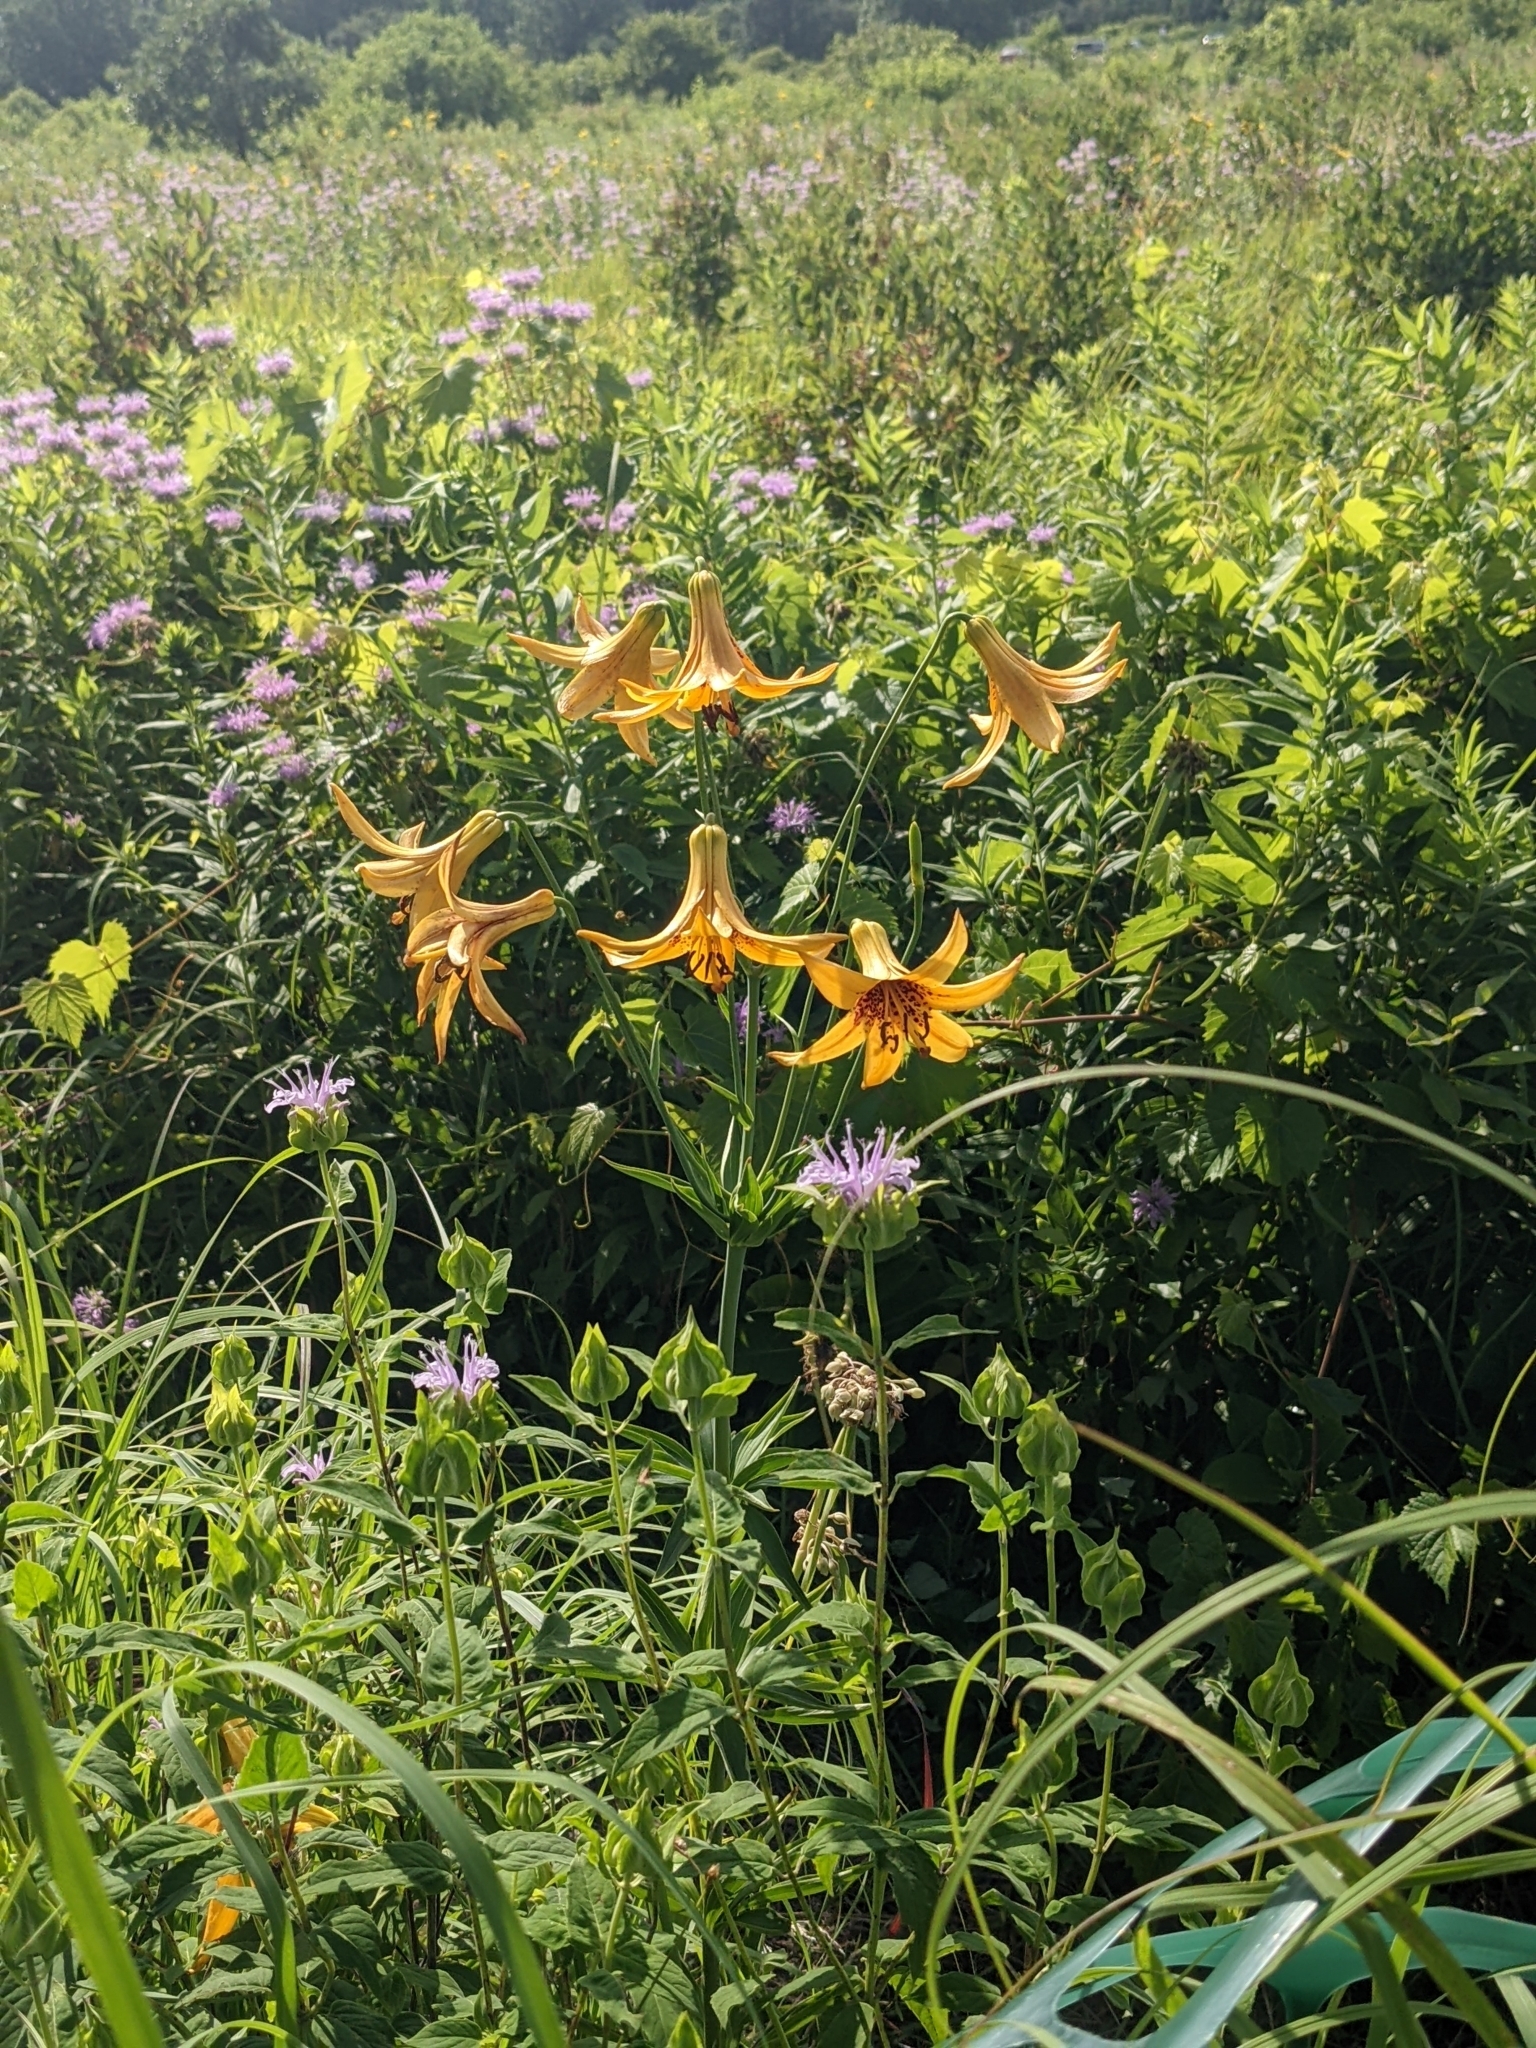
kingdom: Plantae
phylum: Tracheophyta
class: Liliopsida
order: Liliales
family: Liliaceae
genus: Lilium
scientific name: Lilium canadense
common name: Canada lily
